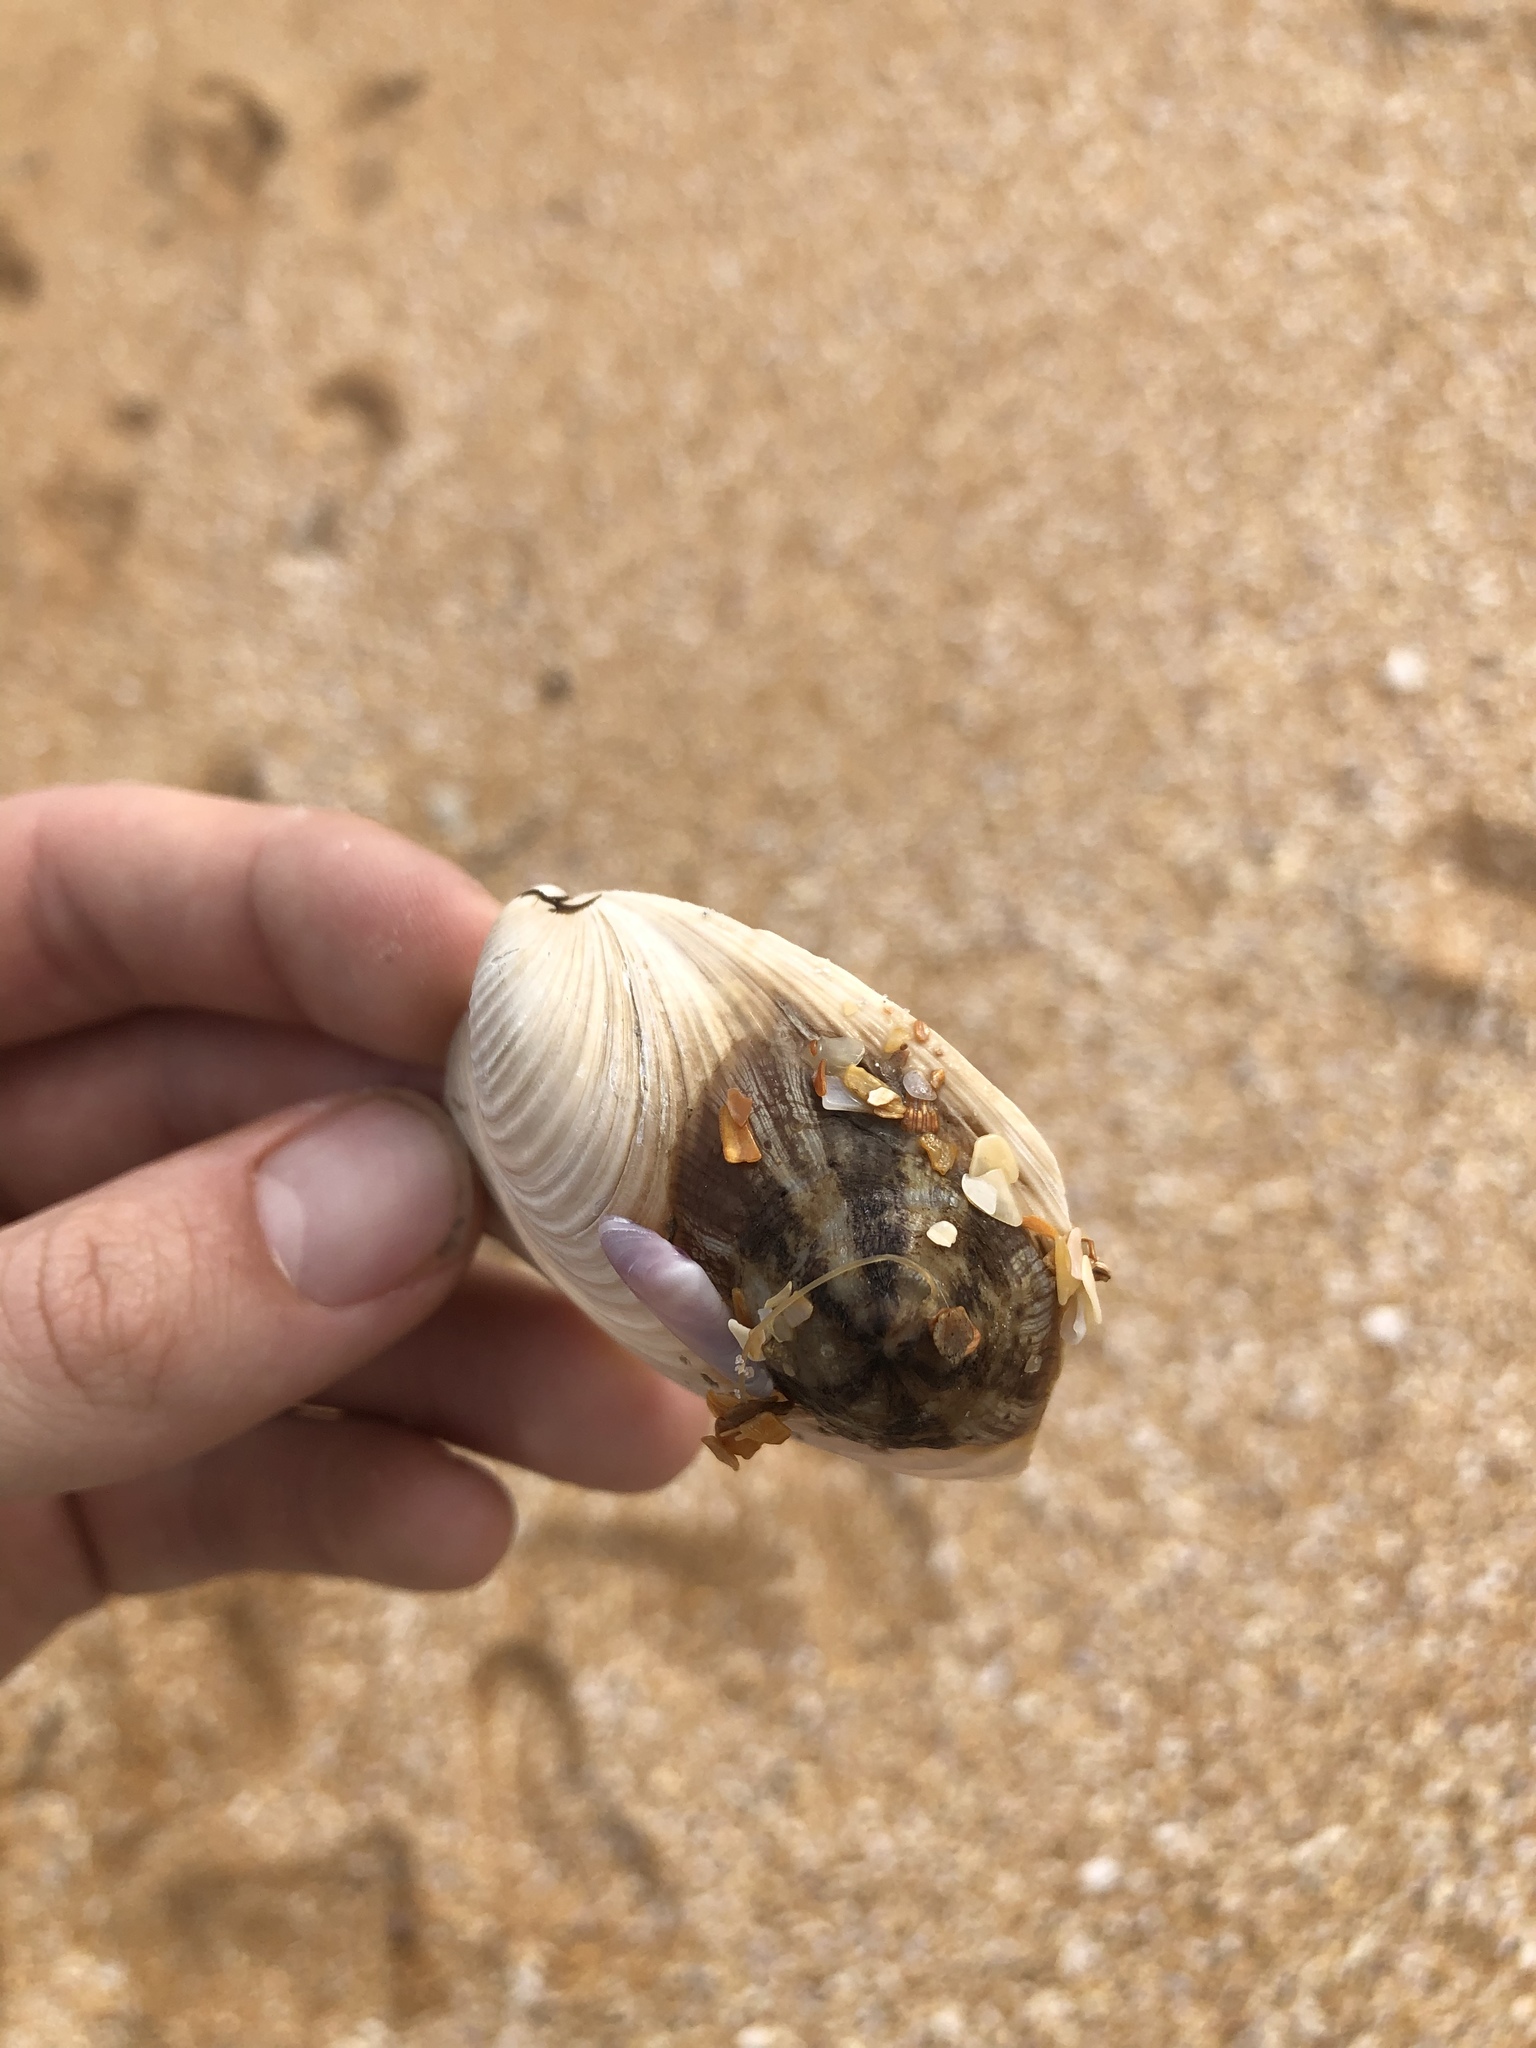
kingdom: Animalia
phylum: Cnidaria
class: Anthozoa
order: Actiniaria
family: Hormathiidae
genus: Calliactis
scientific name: Calliactis tricolor
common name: Hermit anemone
